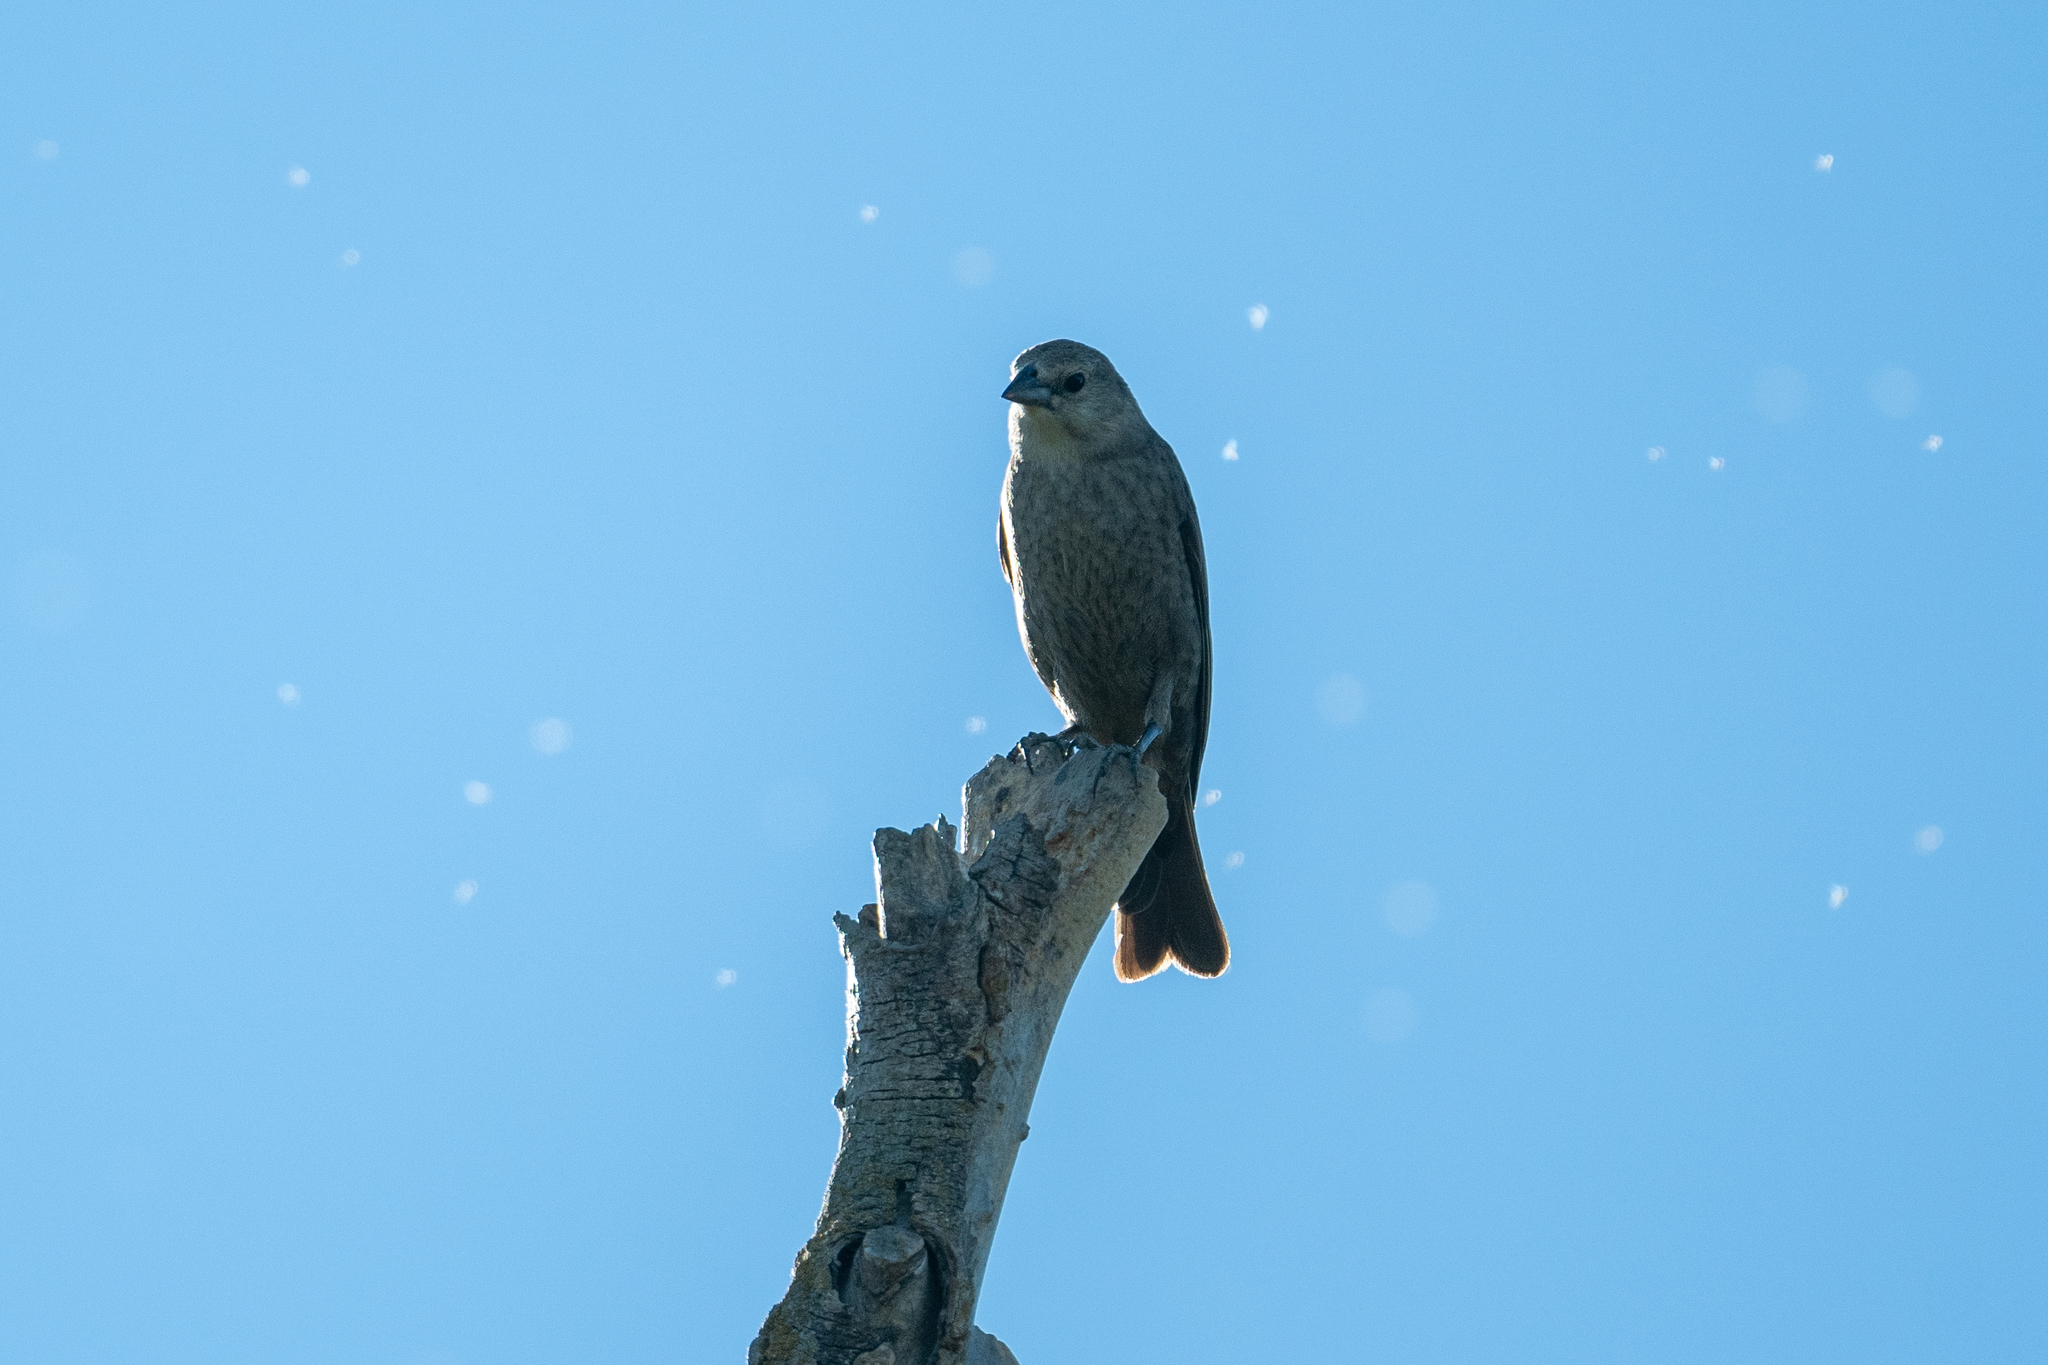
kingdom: Animalia
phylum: Chordata
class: Aves
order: Passeriformes
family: Icteridae
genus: Molothrus
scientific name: Molothrus ater
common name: Brown-headed cowbird
